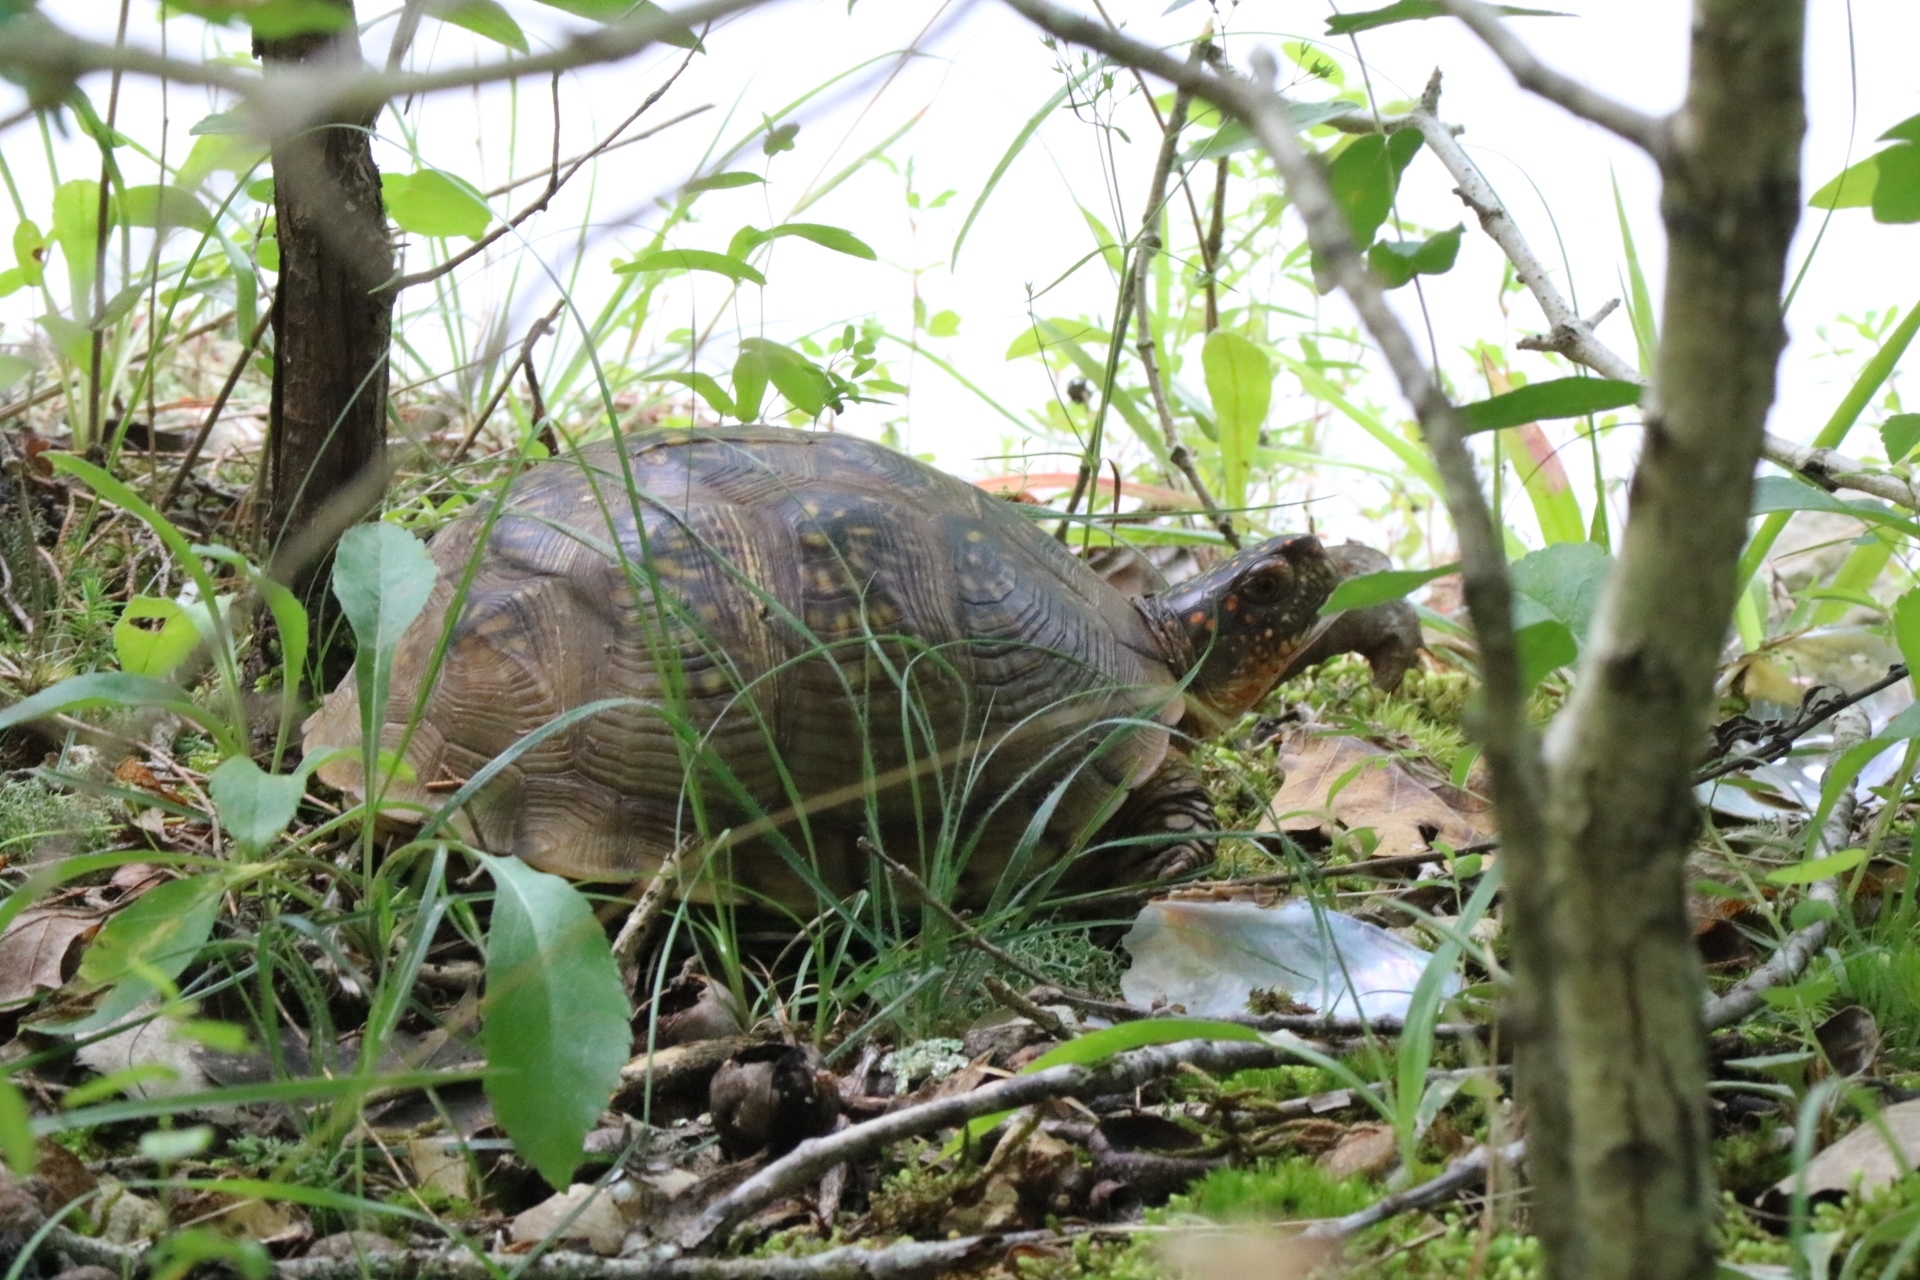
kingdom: Animalia
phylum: Chordata
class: Testudines
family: Emydidae
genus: Terrapene
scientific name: Terrapene carolina
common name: Common box turtle
